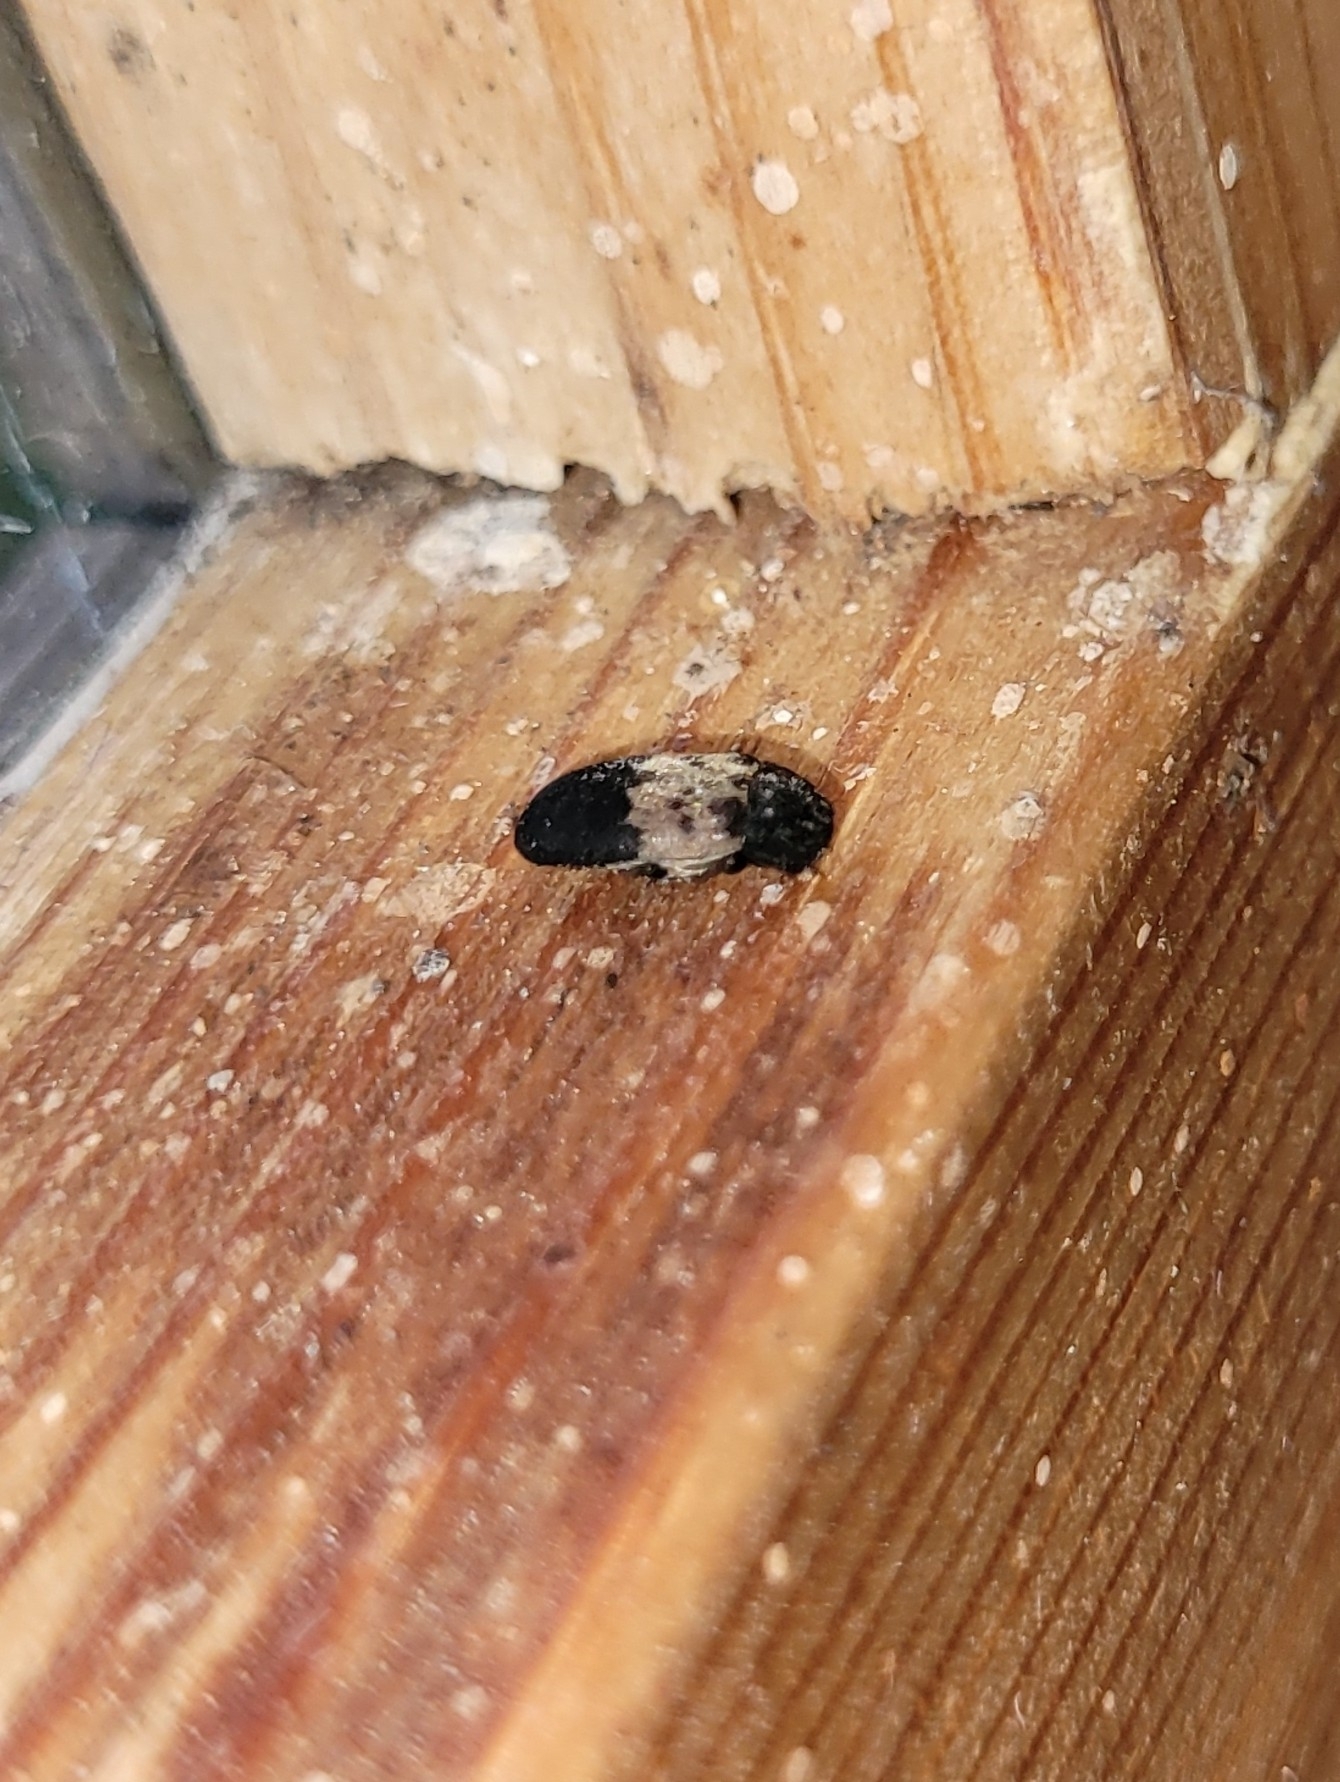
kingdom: Animalia
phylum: Arthropoda
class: Insecta
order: Coleoptera
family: Dermestidae
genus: Dermestes
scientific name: Dermestes lardarius
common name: Larder beetle
